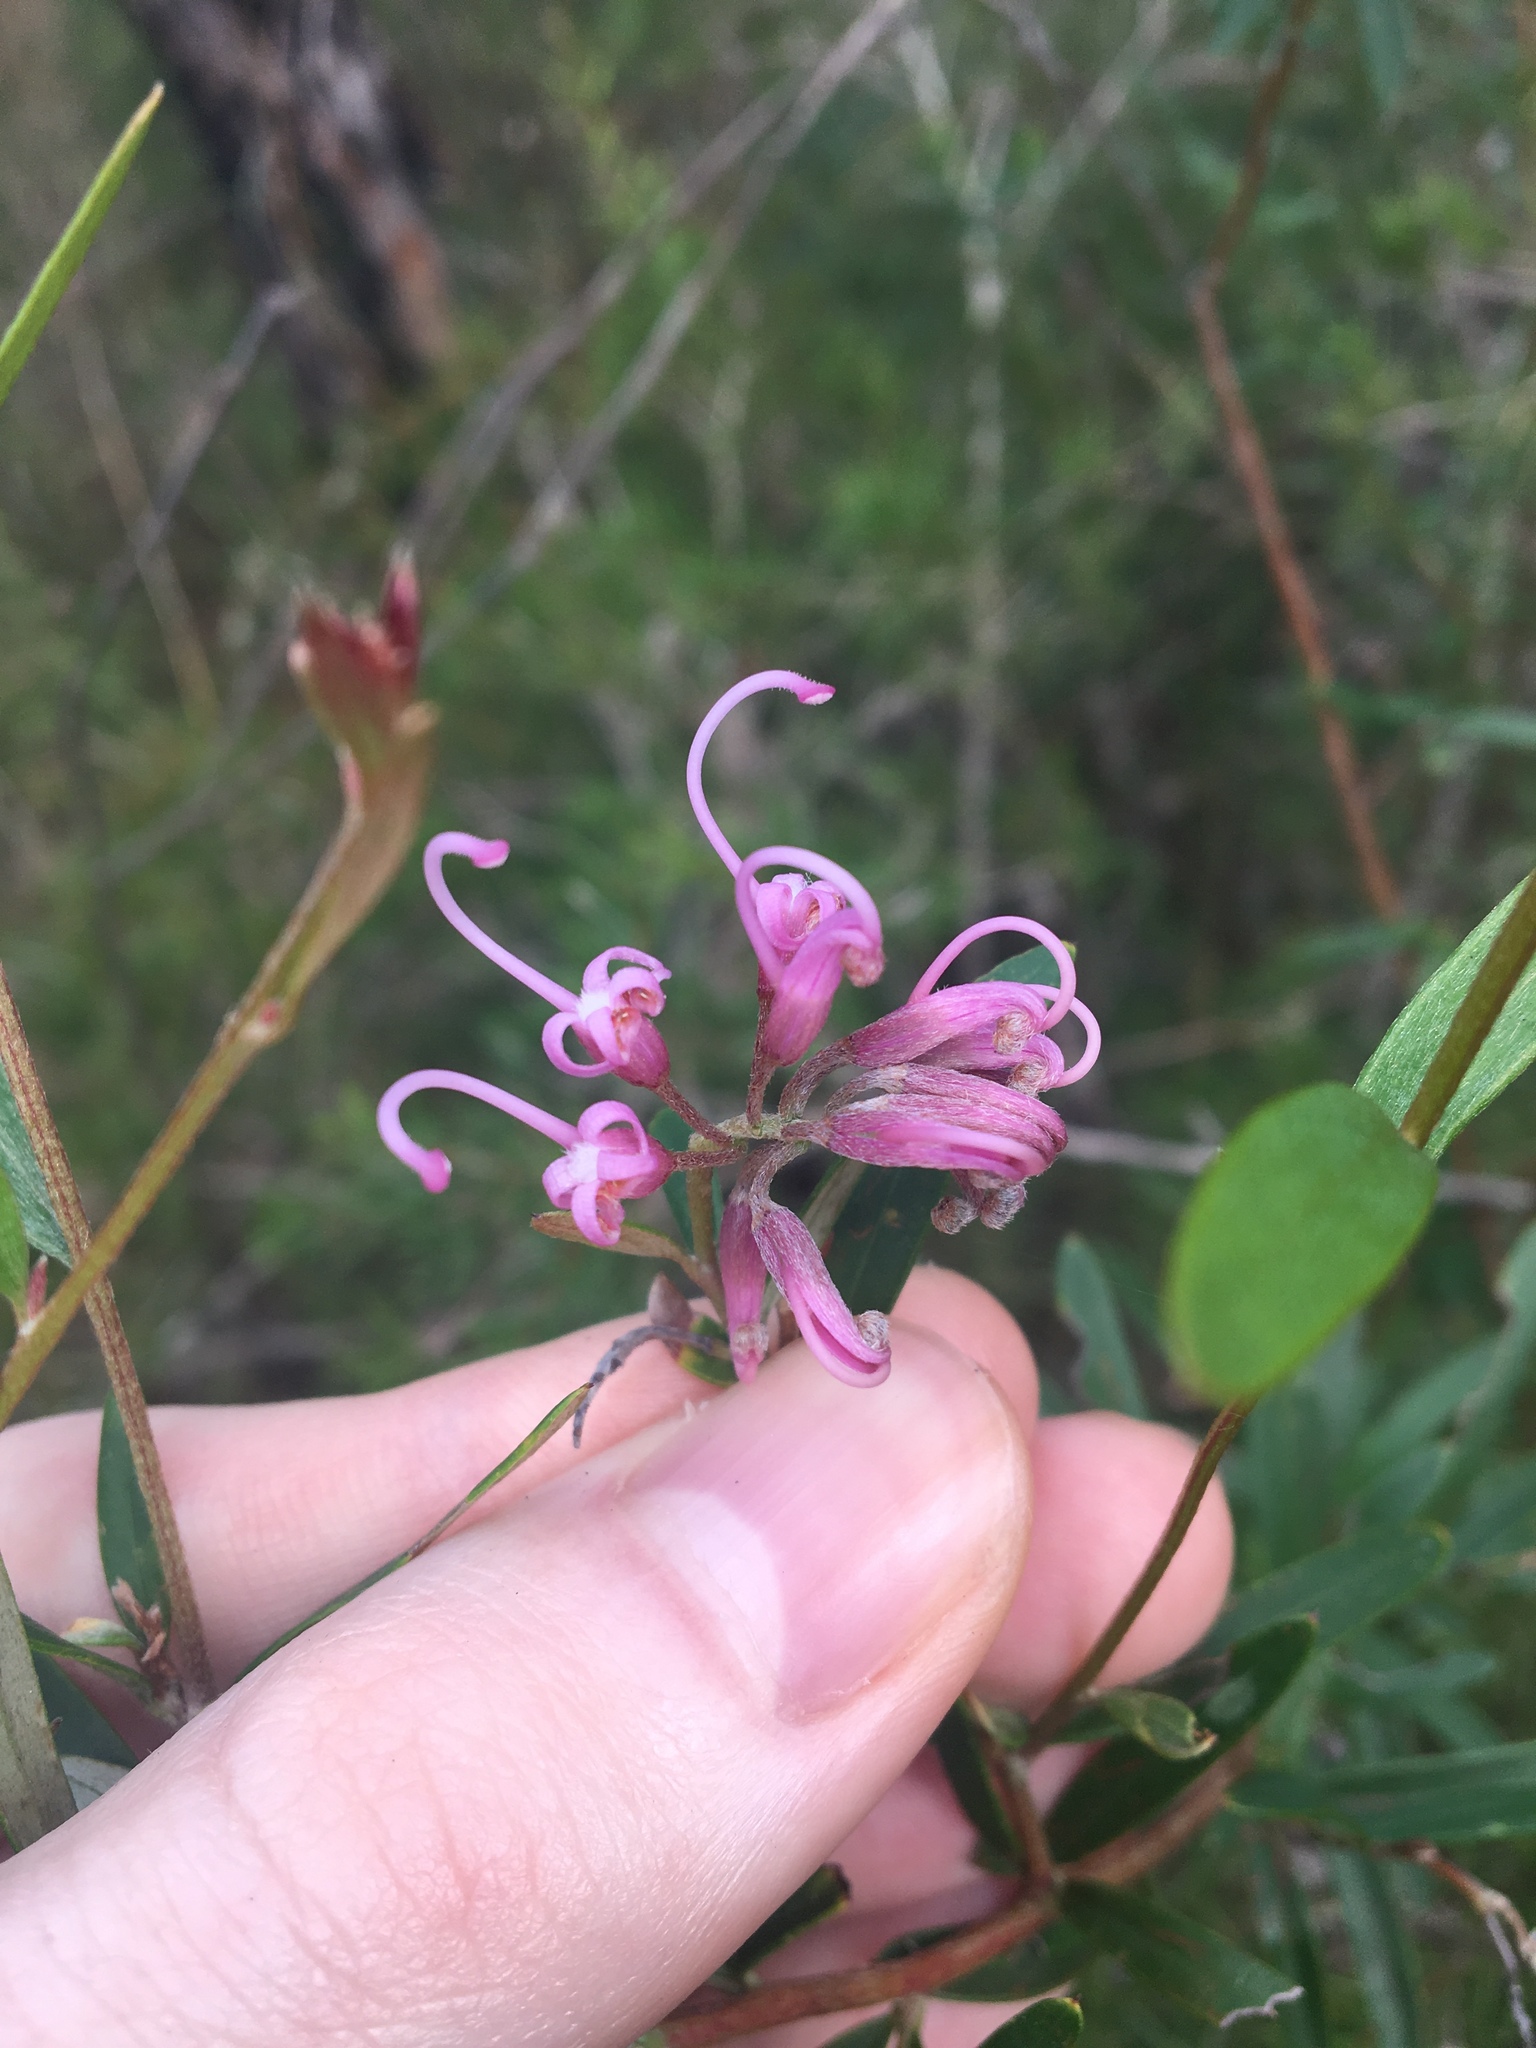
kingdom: Plantae
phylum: Tracheophyta
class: Magnoliopsida
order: Proteales
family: Proteaceae
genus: Grevillea
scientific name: Grevillea sericea
